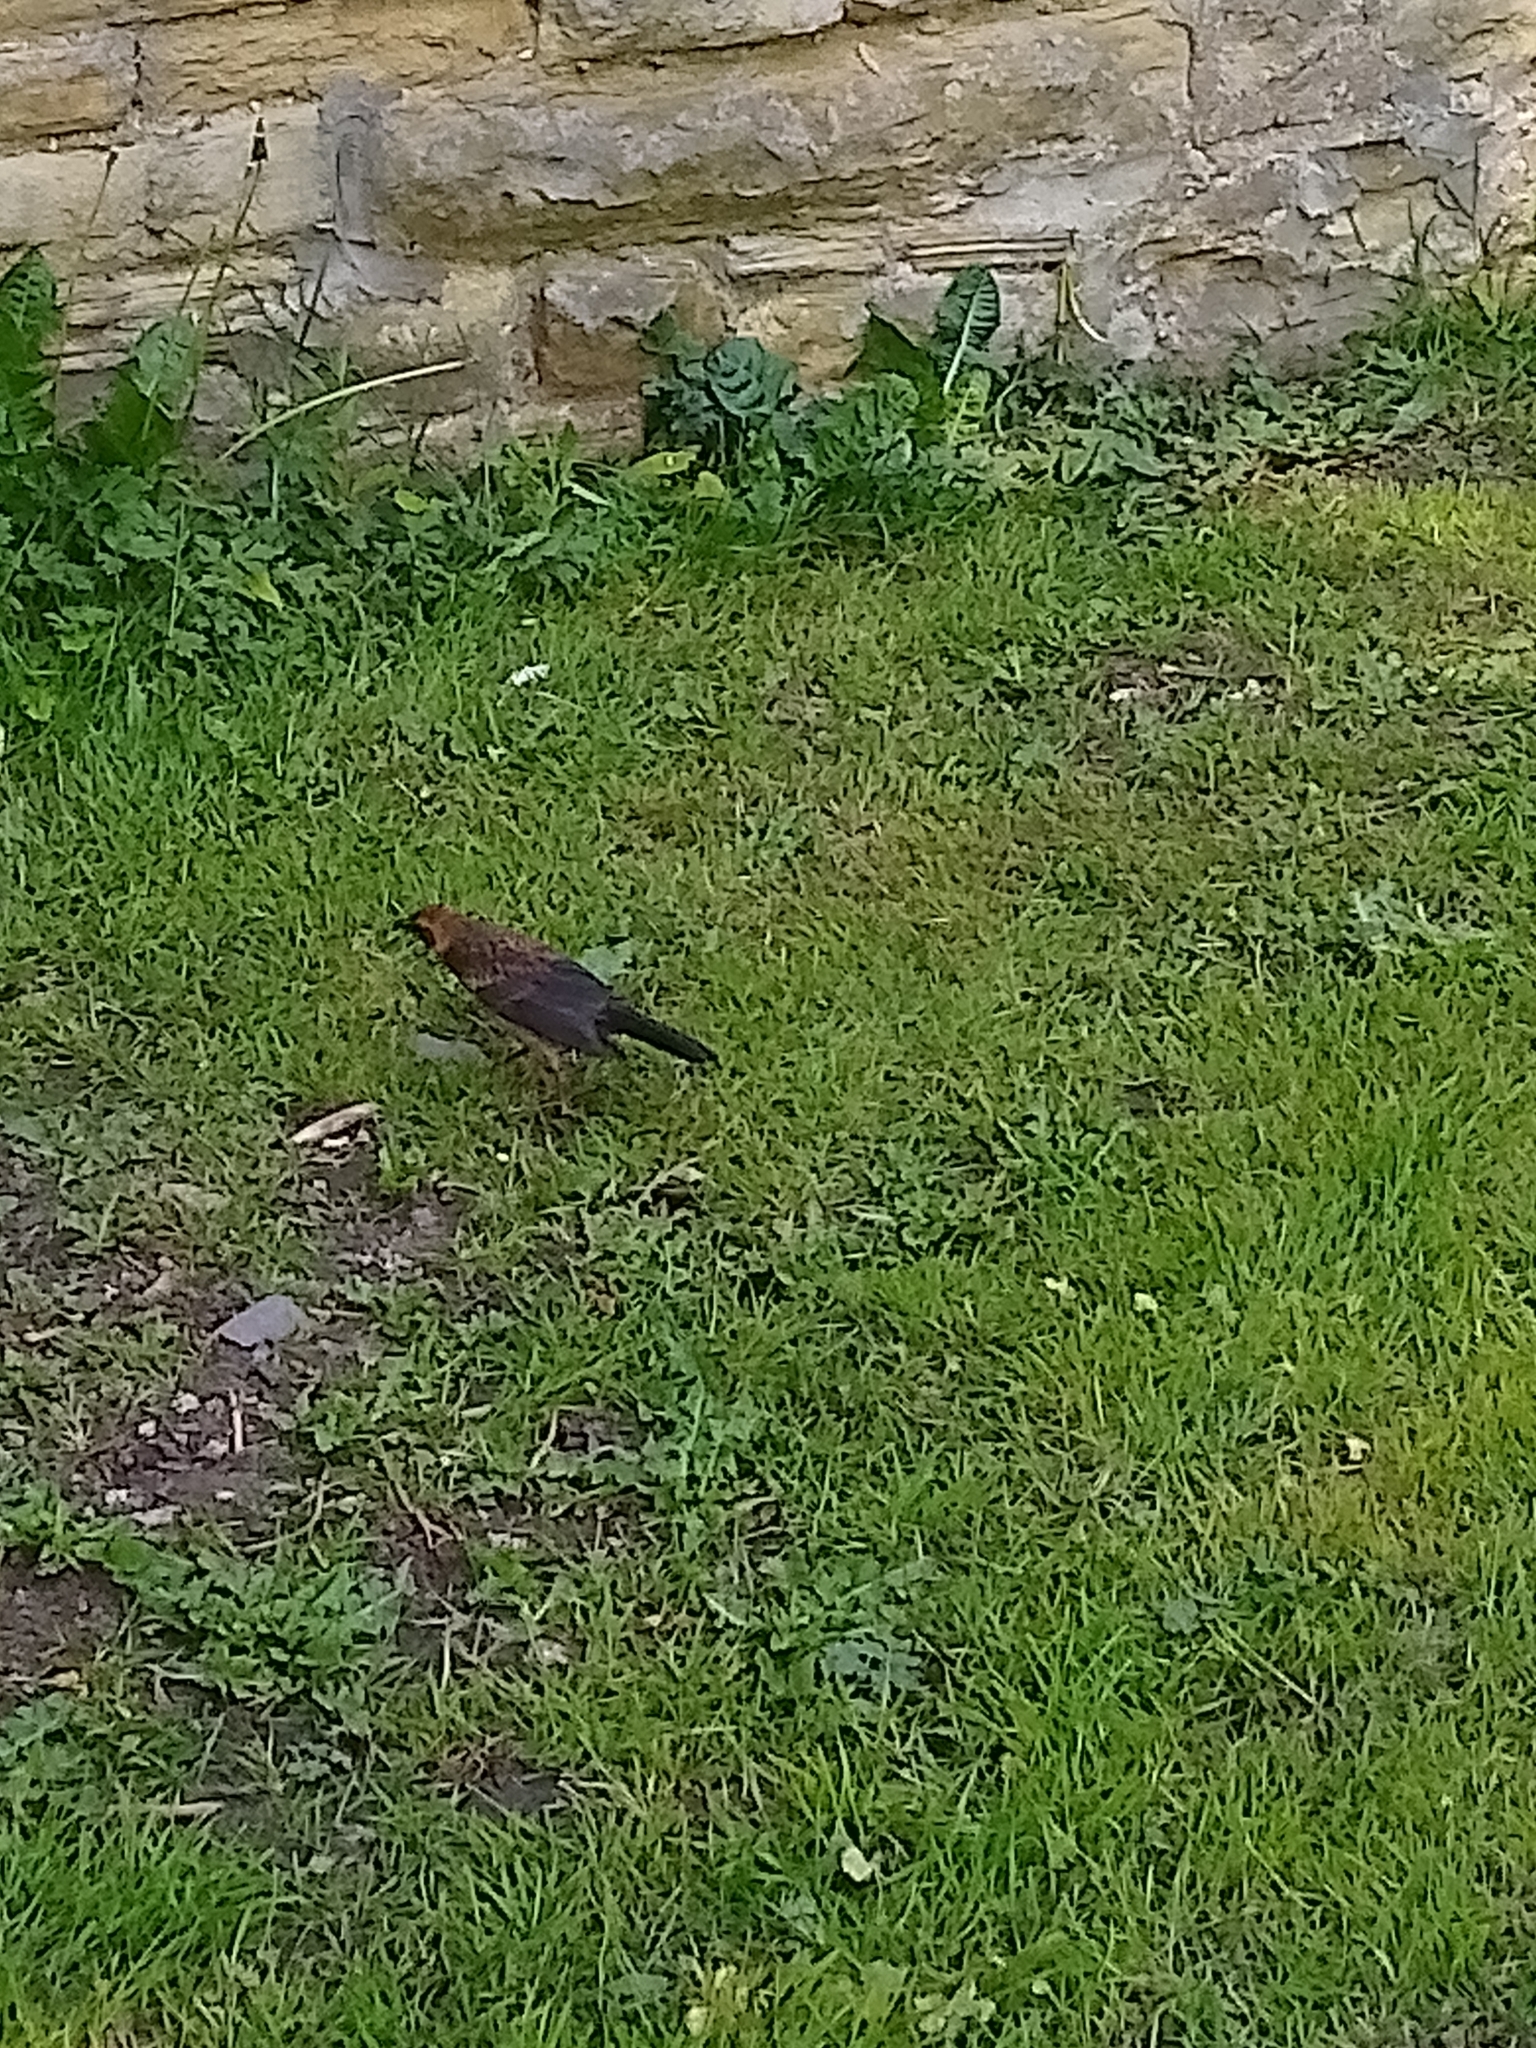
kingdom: Animalia
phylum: Chordata
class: Aves
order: Passeriformes
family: Turdidae
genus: Turdus
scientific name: Turdus merula
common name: Common blackbird
